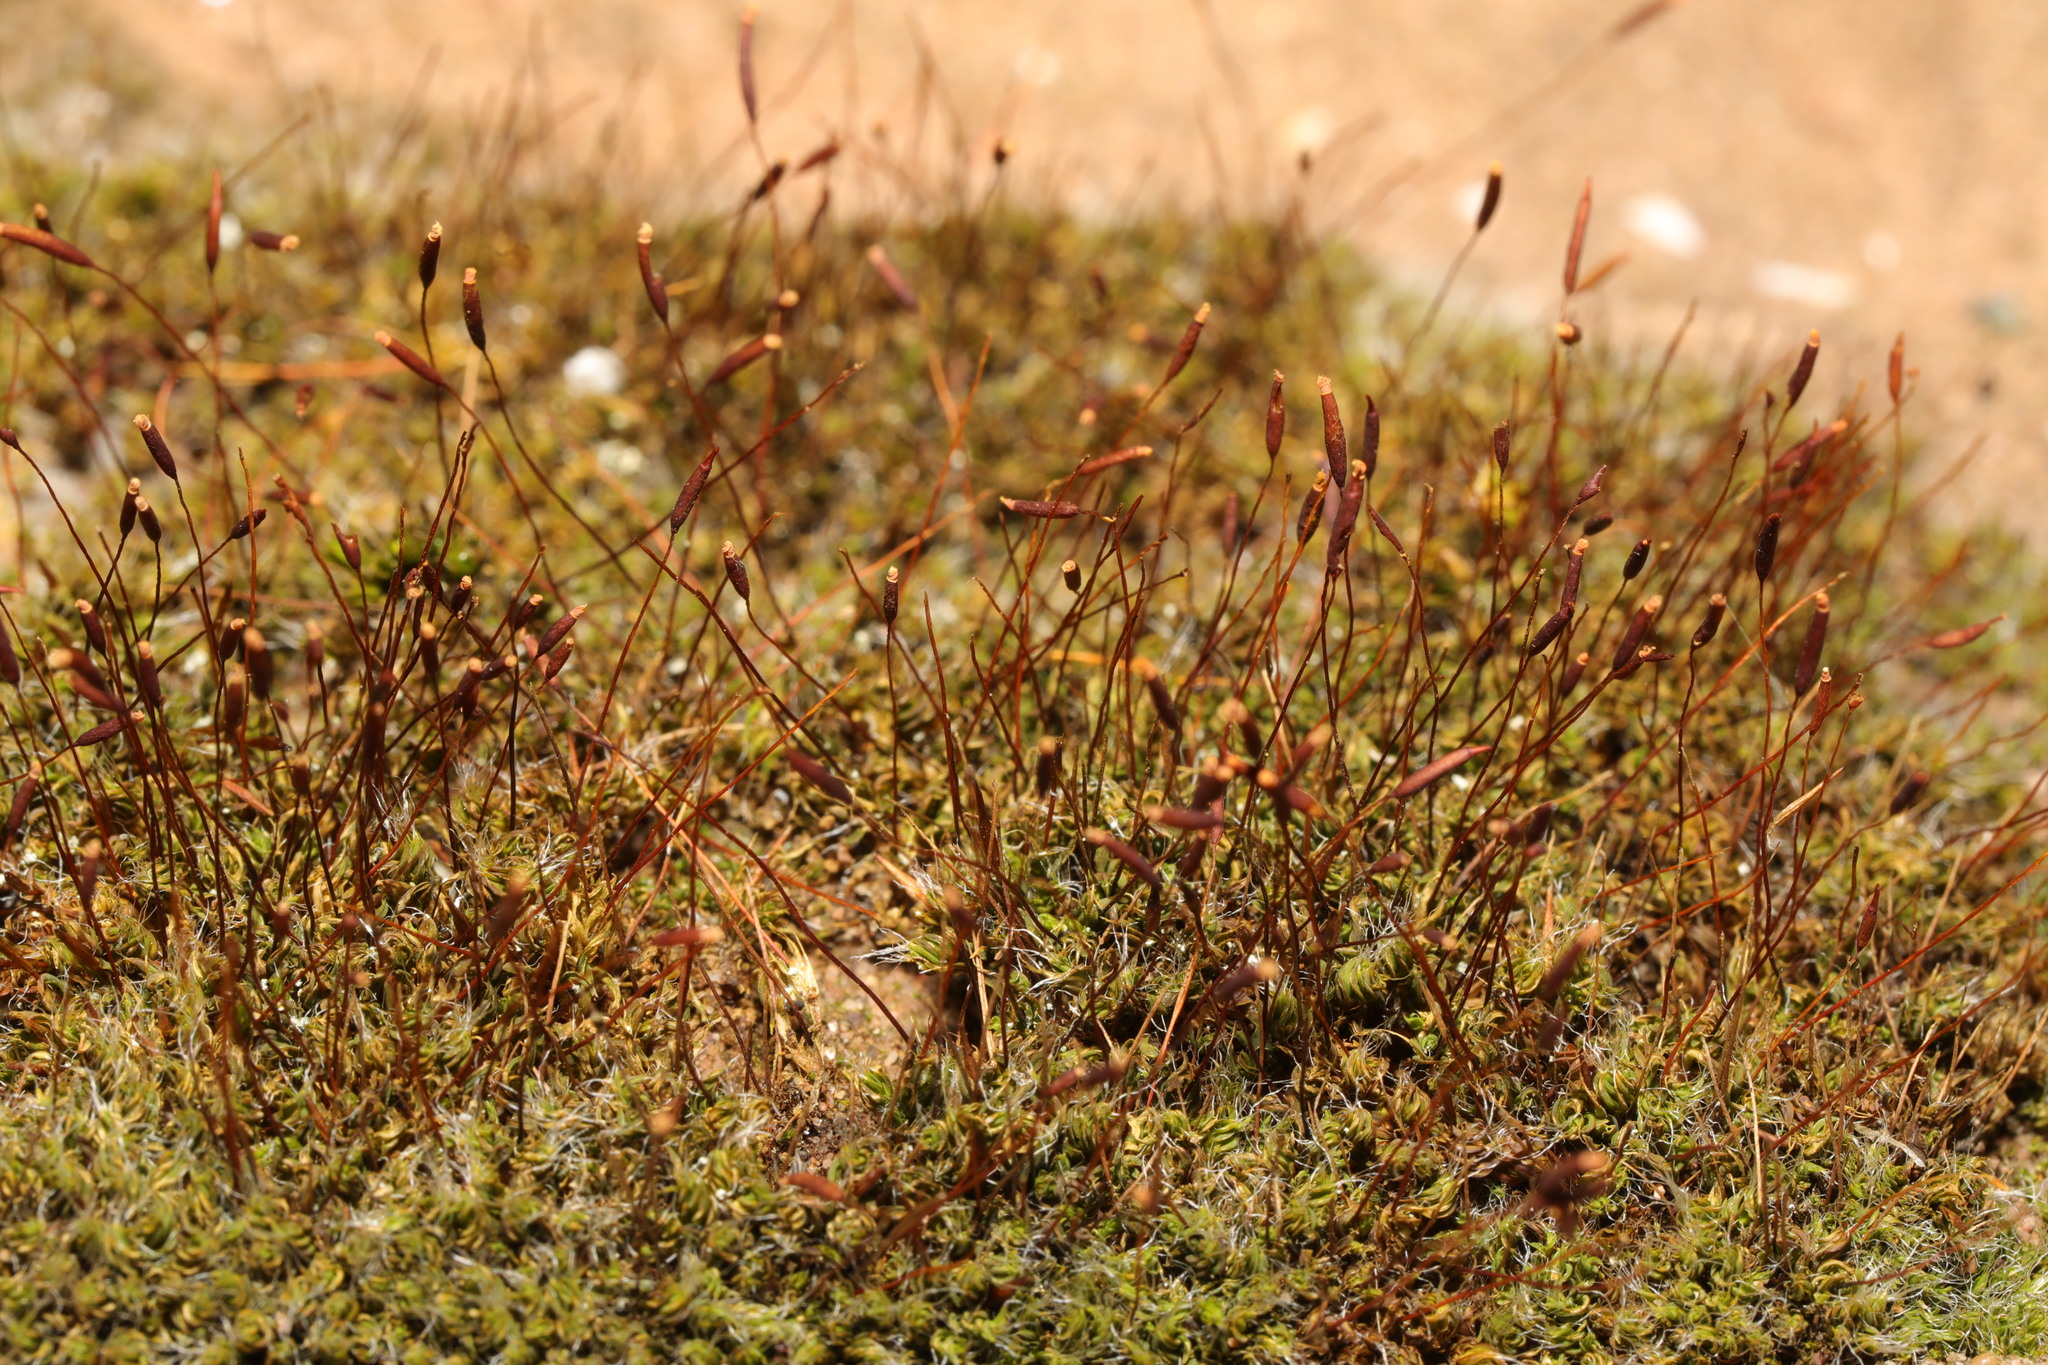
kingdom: Plantae
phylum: Bryophyta
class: Bryopsida
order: Pottiales
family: Pottiaceae
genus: Tortula
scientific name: Tortula muralis
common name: Wall screw-moss
